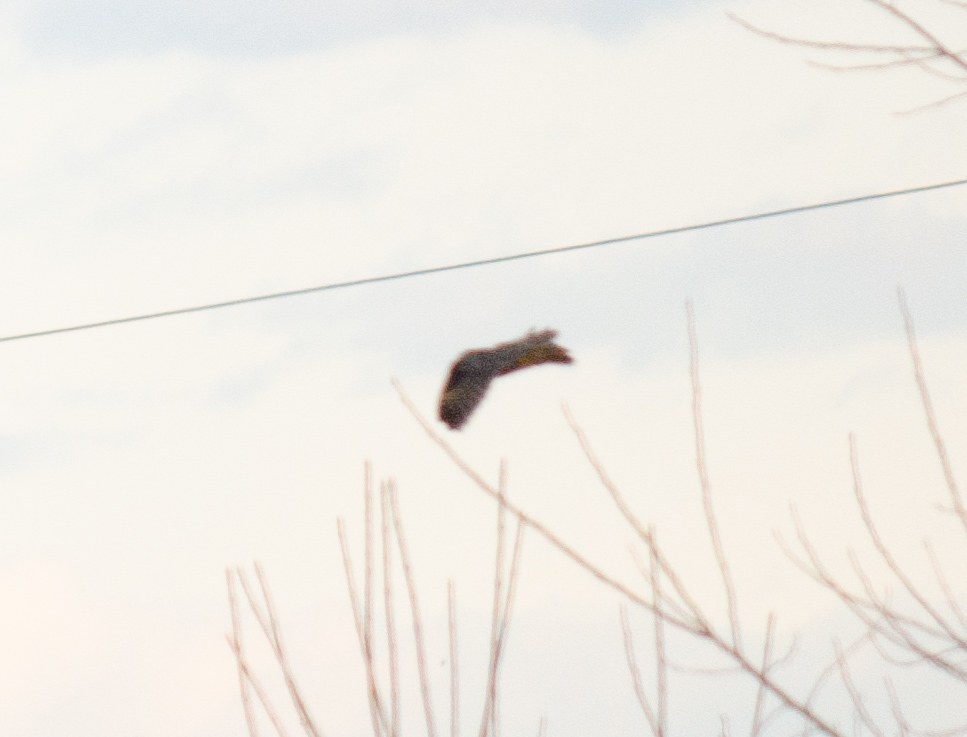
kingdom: Animalia
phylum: Chordata
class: Aves
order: Strigiformes
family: Strigidae
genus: Asio
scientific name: Asio otus
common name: Long-eared owl
